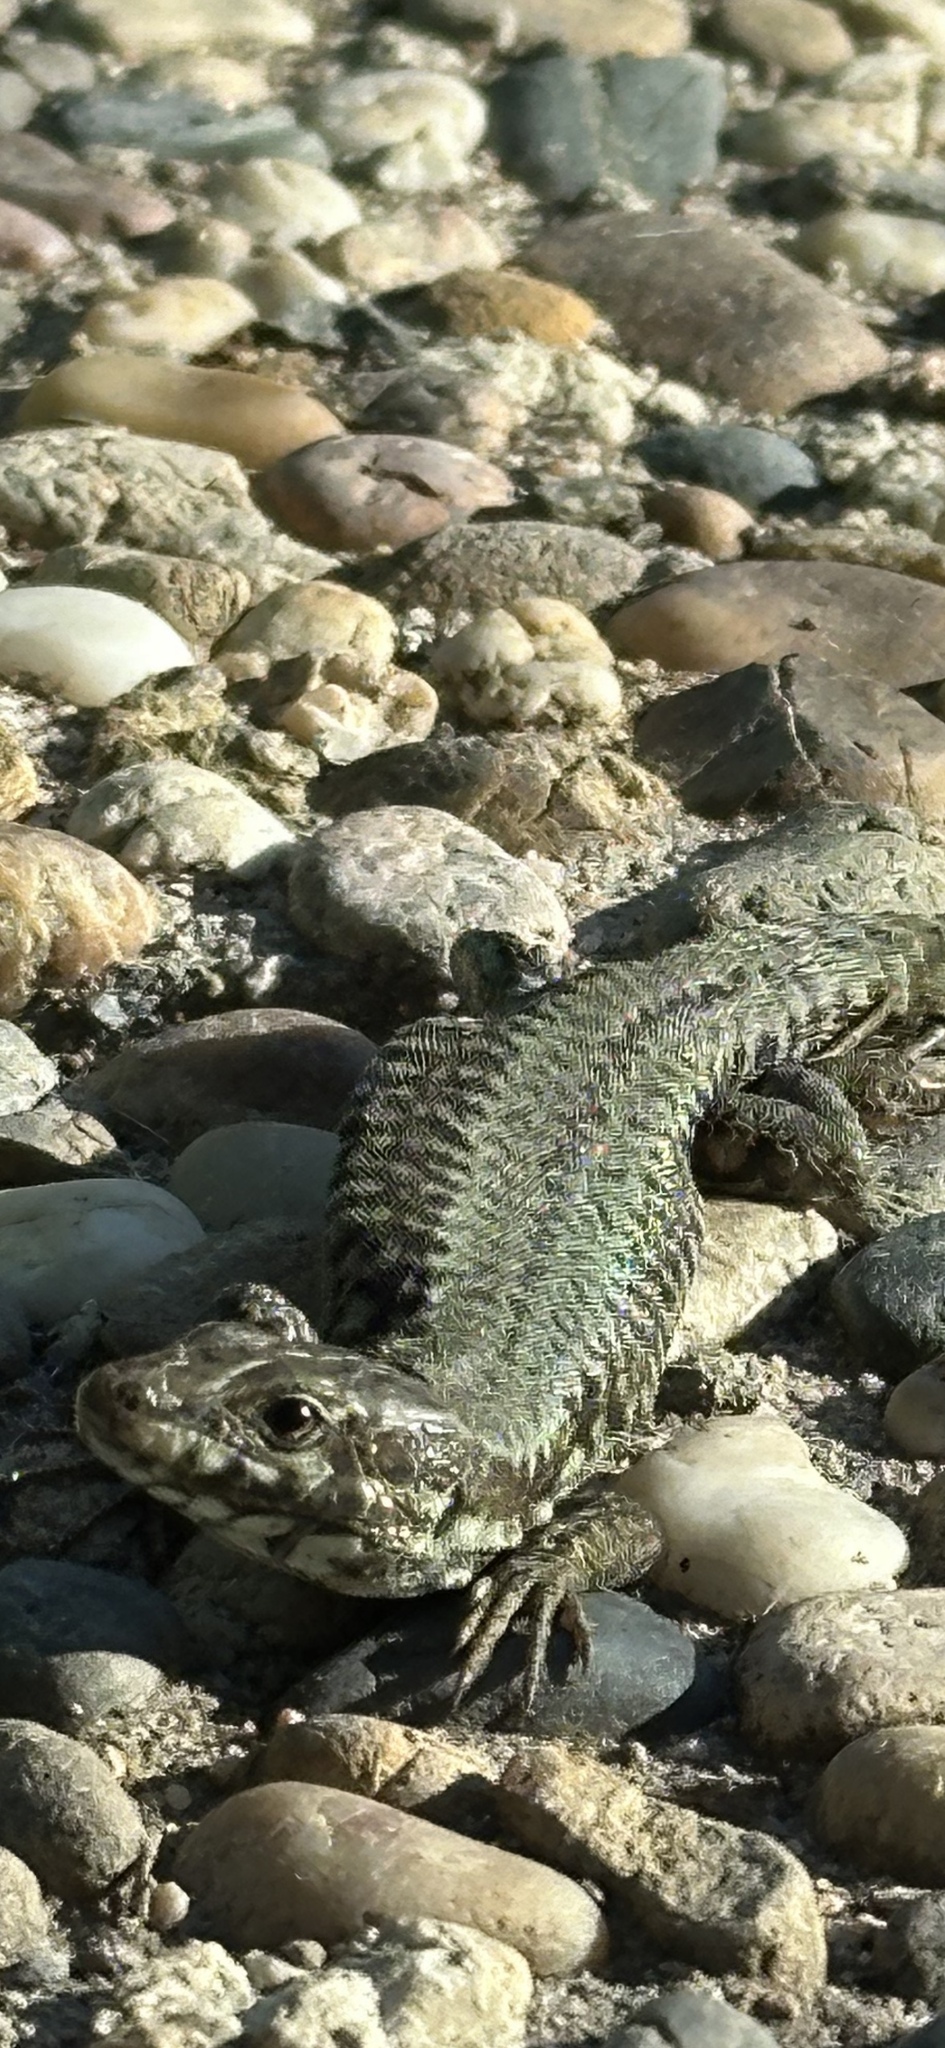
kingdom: Animalia
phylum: Chordata
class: Squamata
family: Lacertidae
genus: Podarcis
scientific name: Podarcis muralis
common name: Common wall lizard
